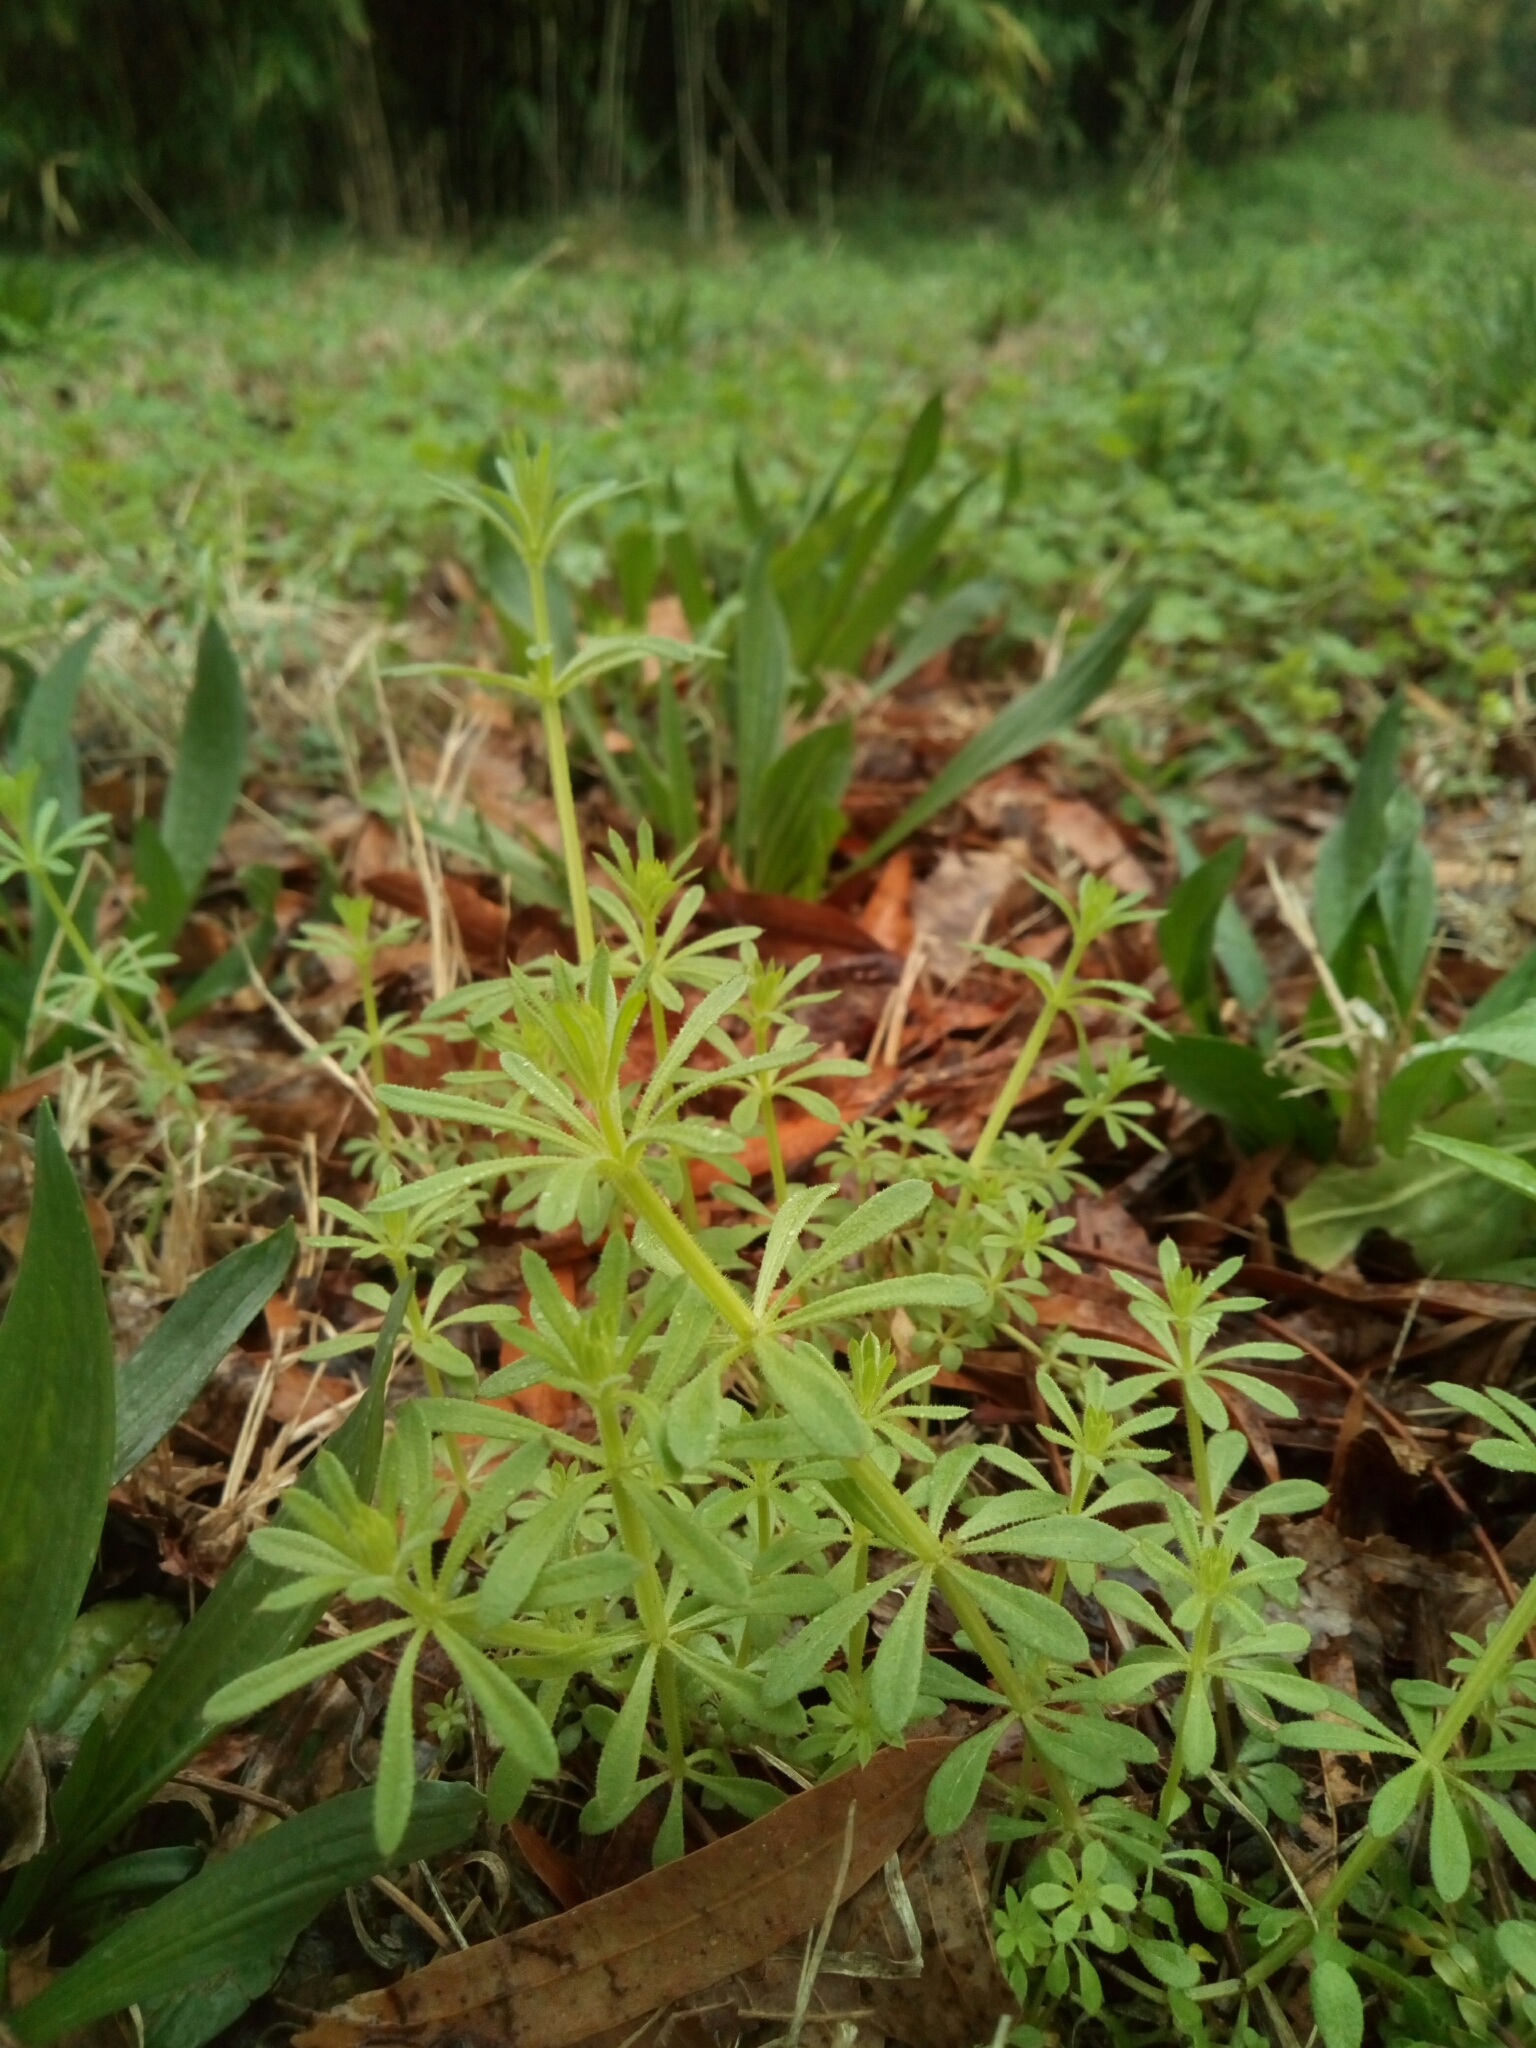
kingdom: Plantae
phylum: Tracheophyta
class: Magnoliopsida
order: Gentianales
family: Rubiaceae
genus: Galium
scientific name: Galium aparine
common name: Cleavers
